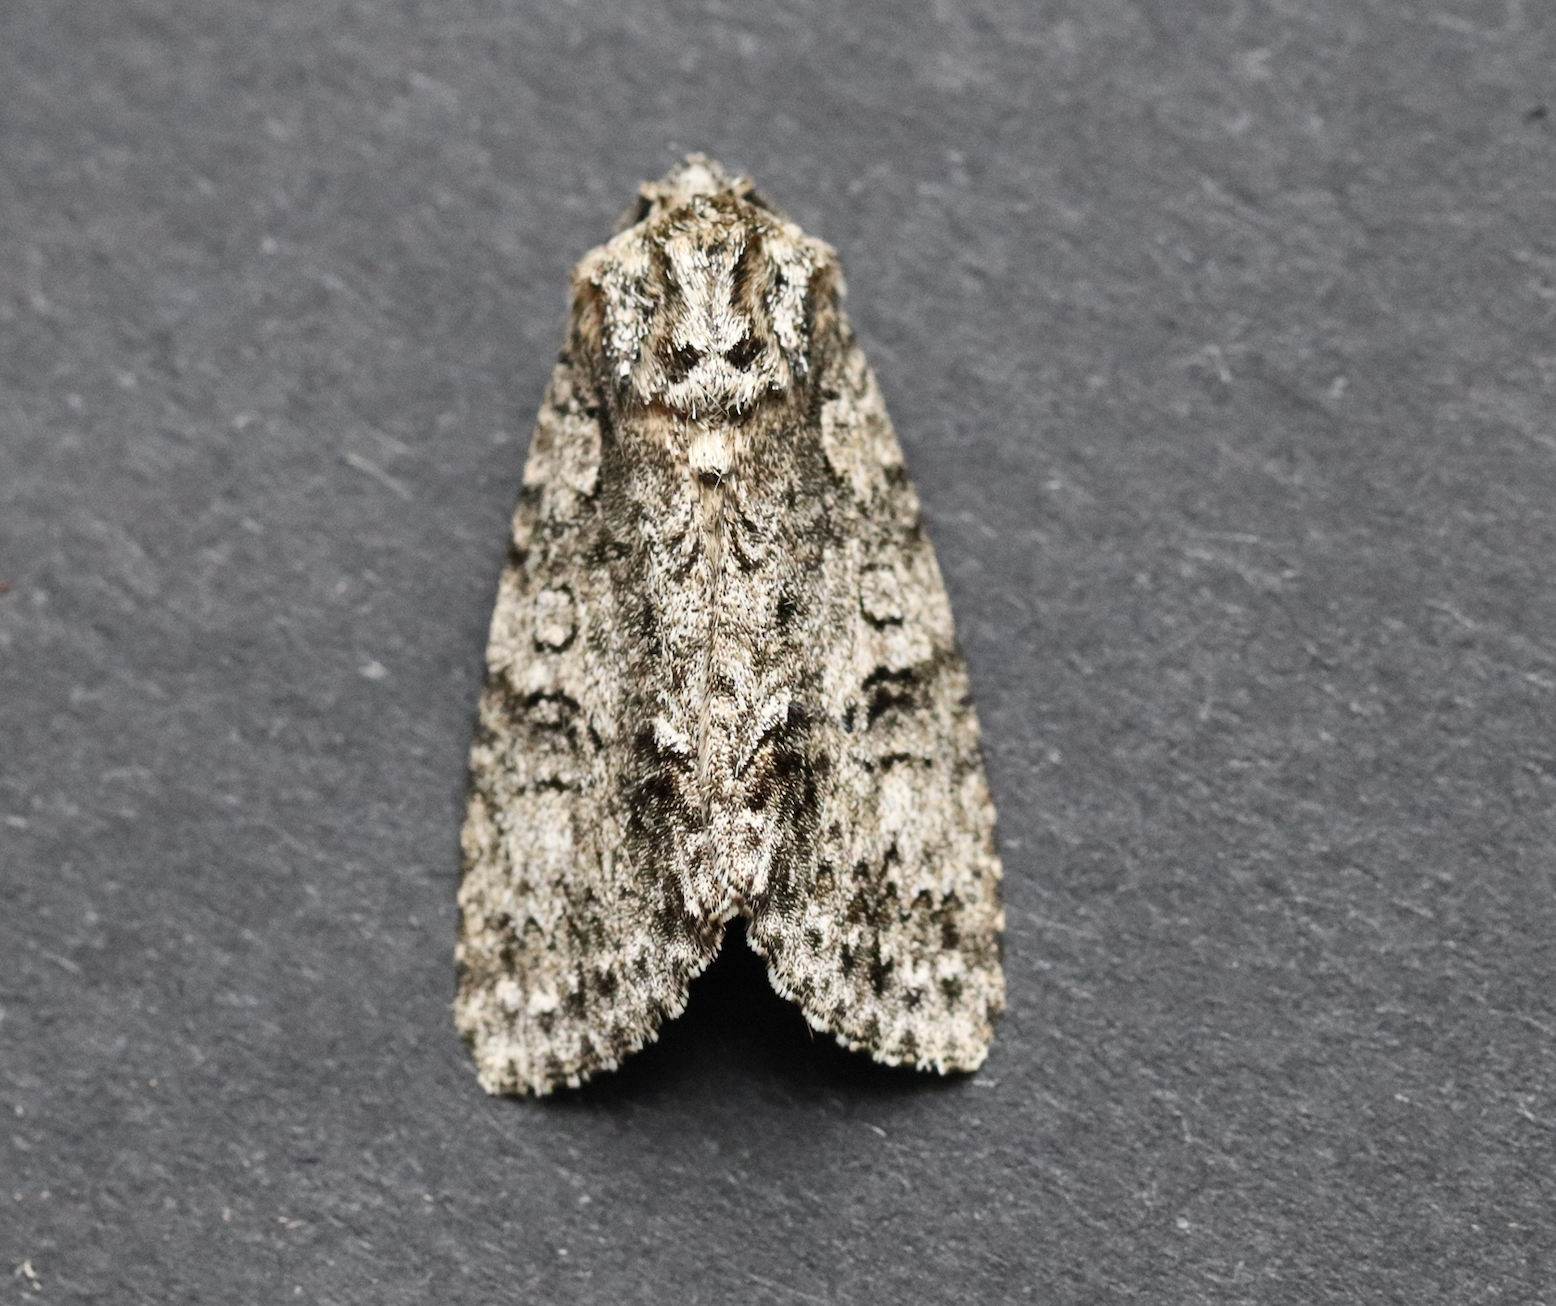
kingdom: Animalia
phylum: Arthropoda
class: Insecta
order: Lepidoptera
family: Noctuidae
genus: Acronicta
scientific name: Acronicta rumicis
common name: Knot grass
